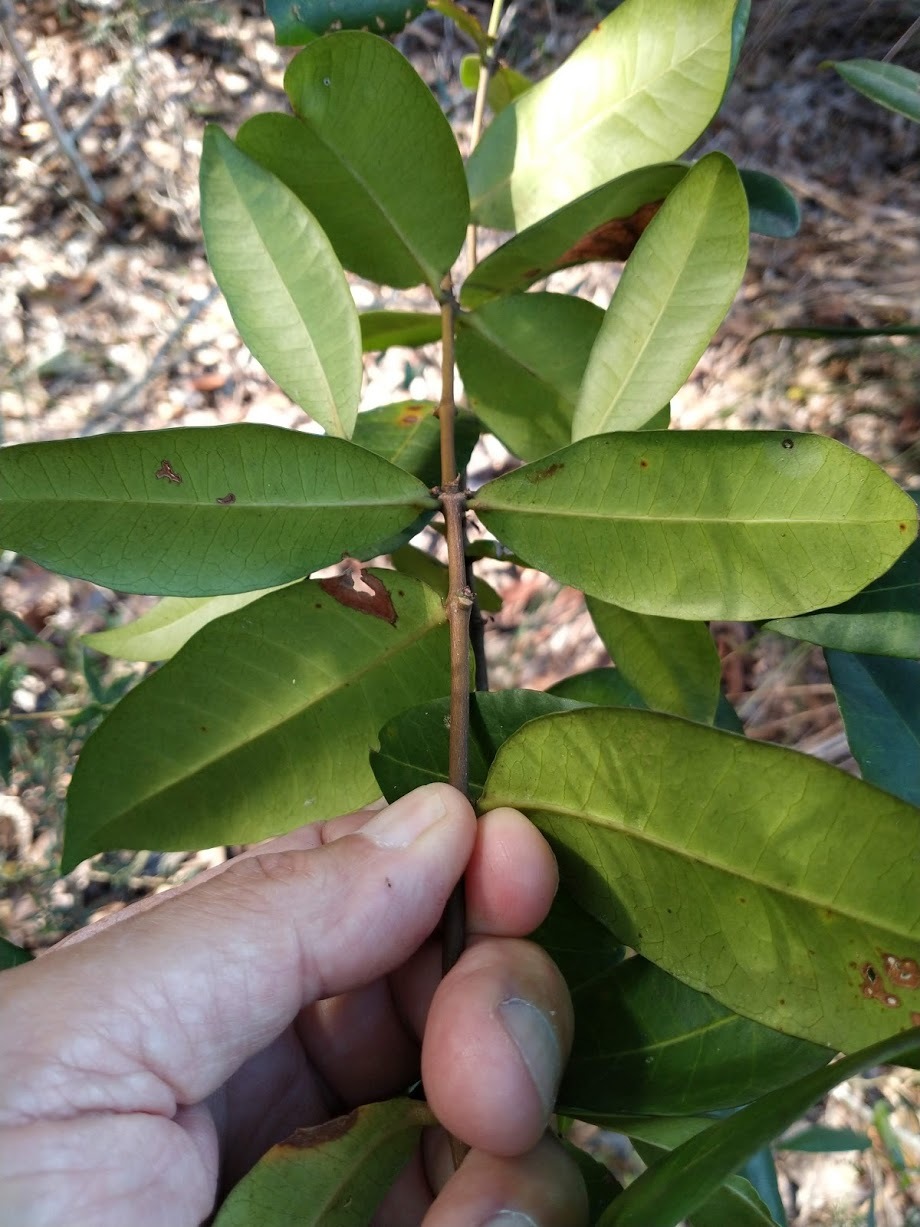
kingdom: Plantae
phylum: Tracheophyta
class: Magnoliopsida
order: Gentianales
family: Apocynaceae
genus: Melodinus
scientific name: Melodinus australis
